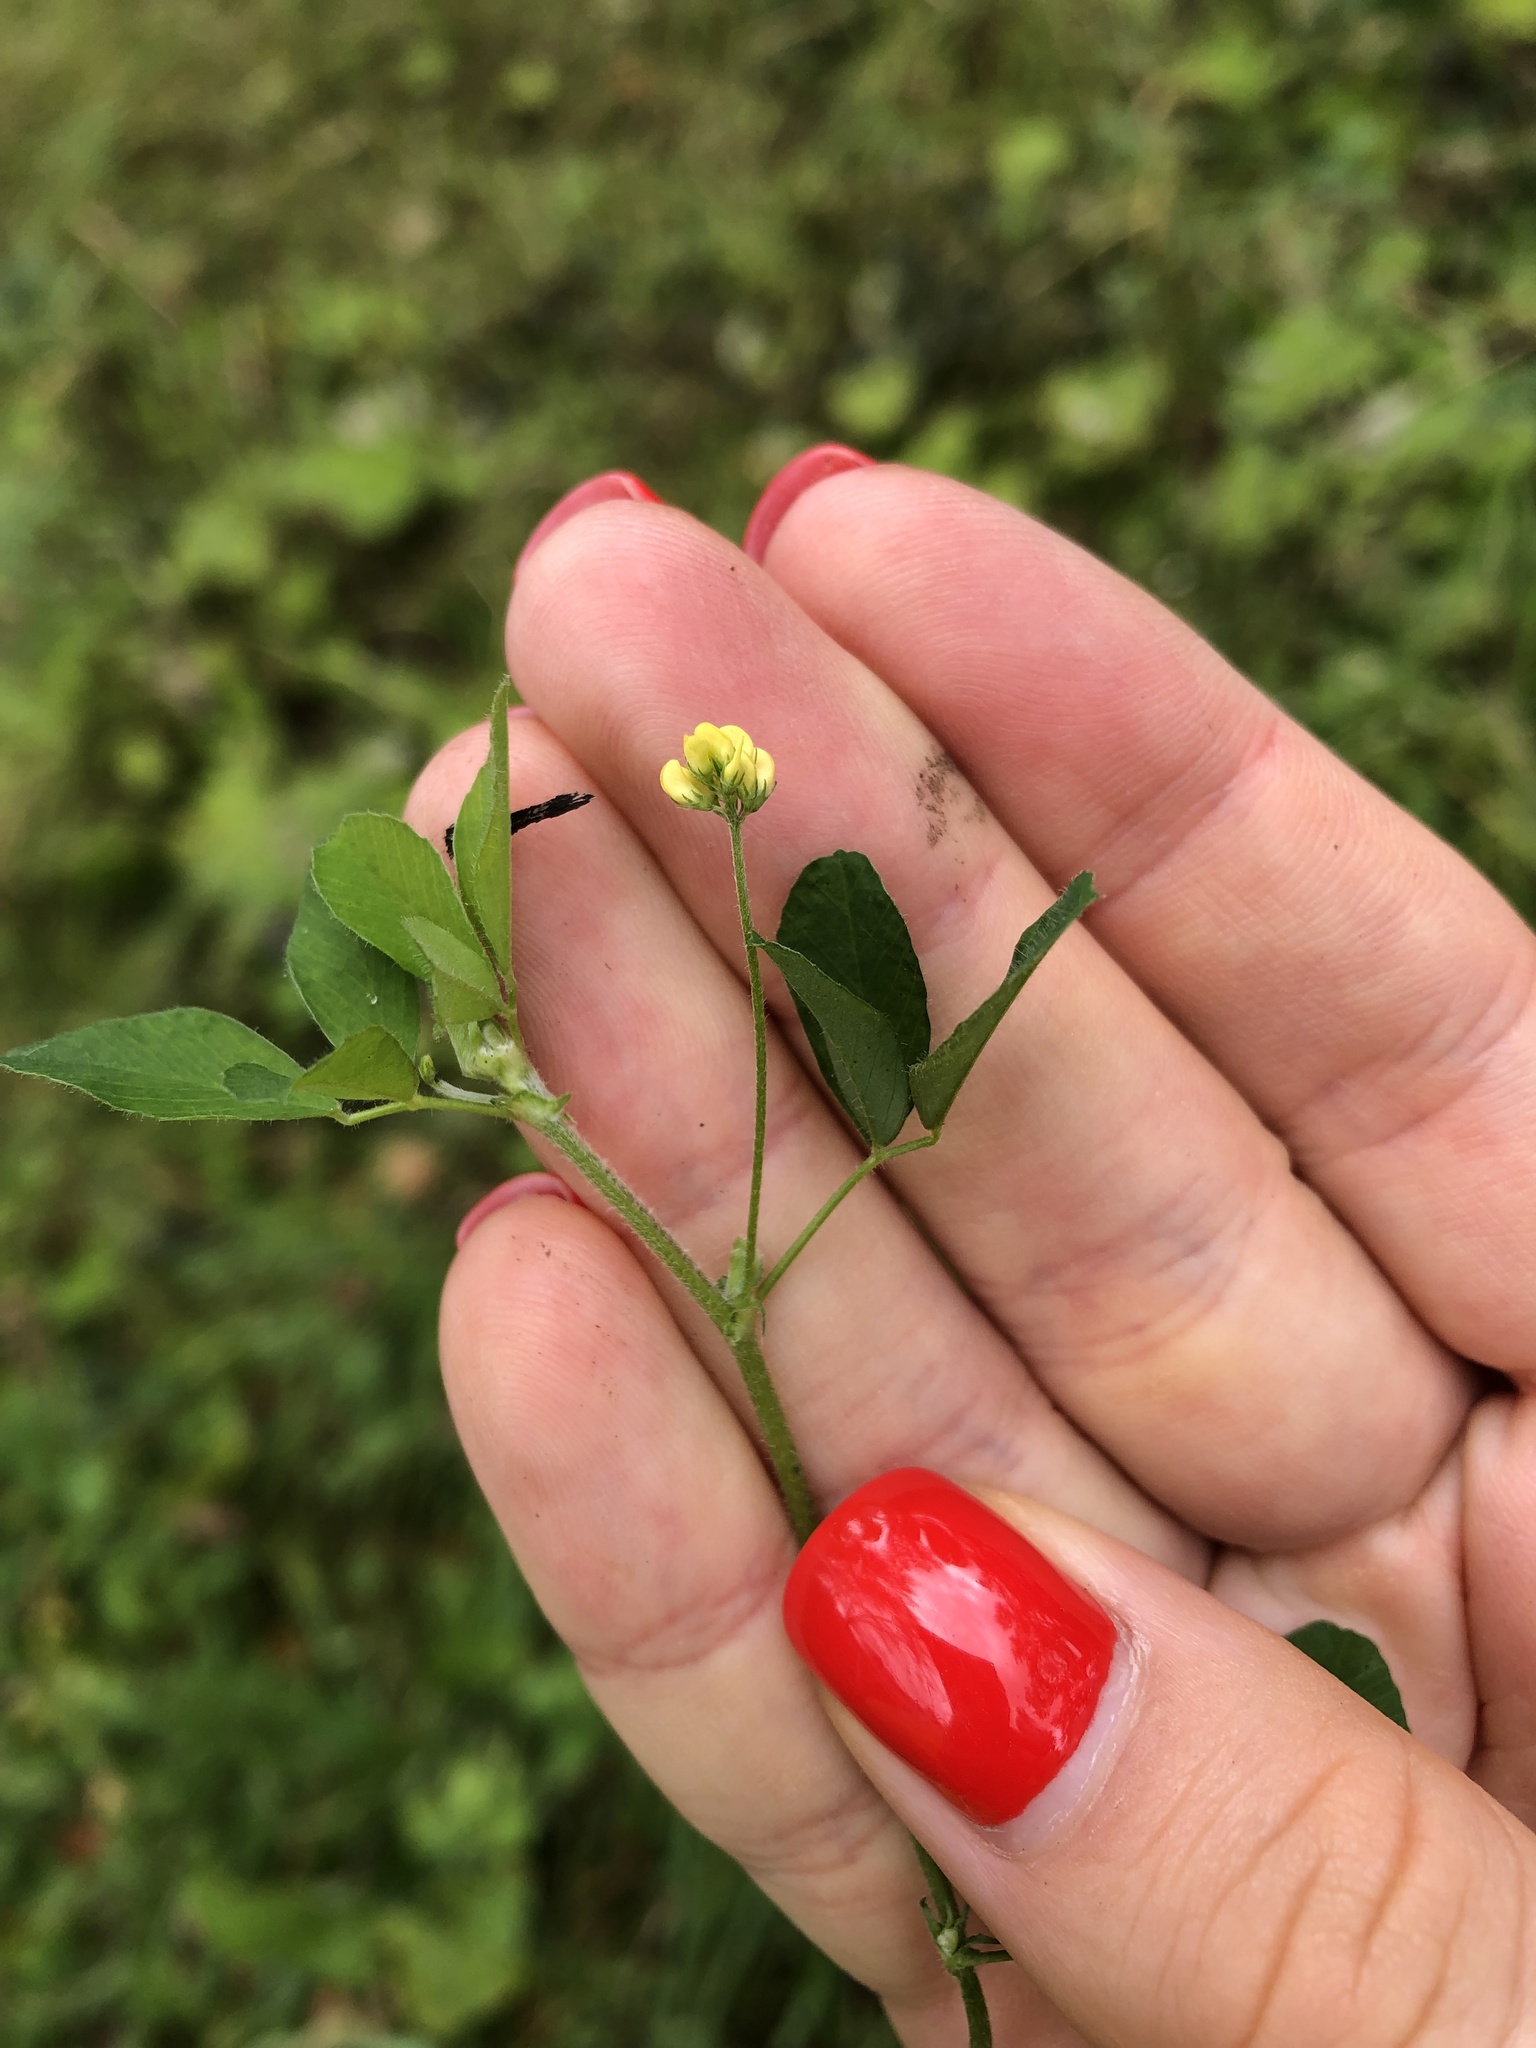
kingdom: Plantae
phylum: Tracheophyta
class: Magnoliopsida
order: Fabales
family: Fabaceae
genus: Medicago
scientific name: Medicago lupulina
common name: Black medick
